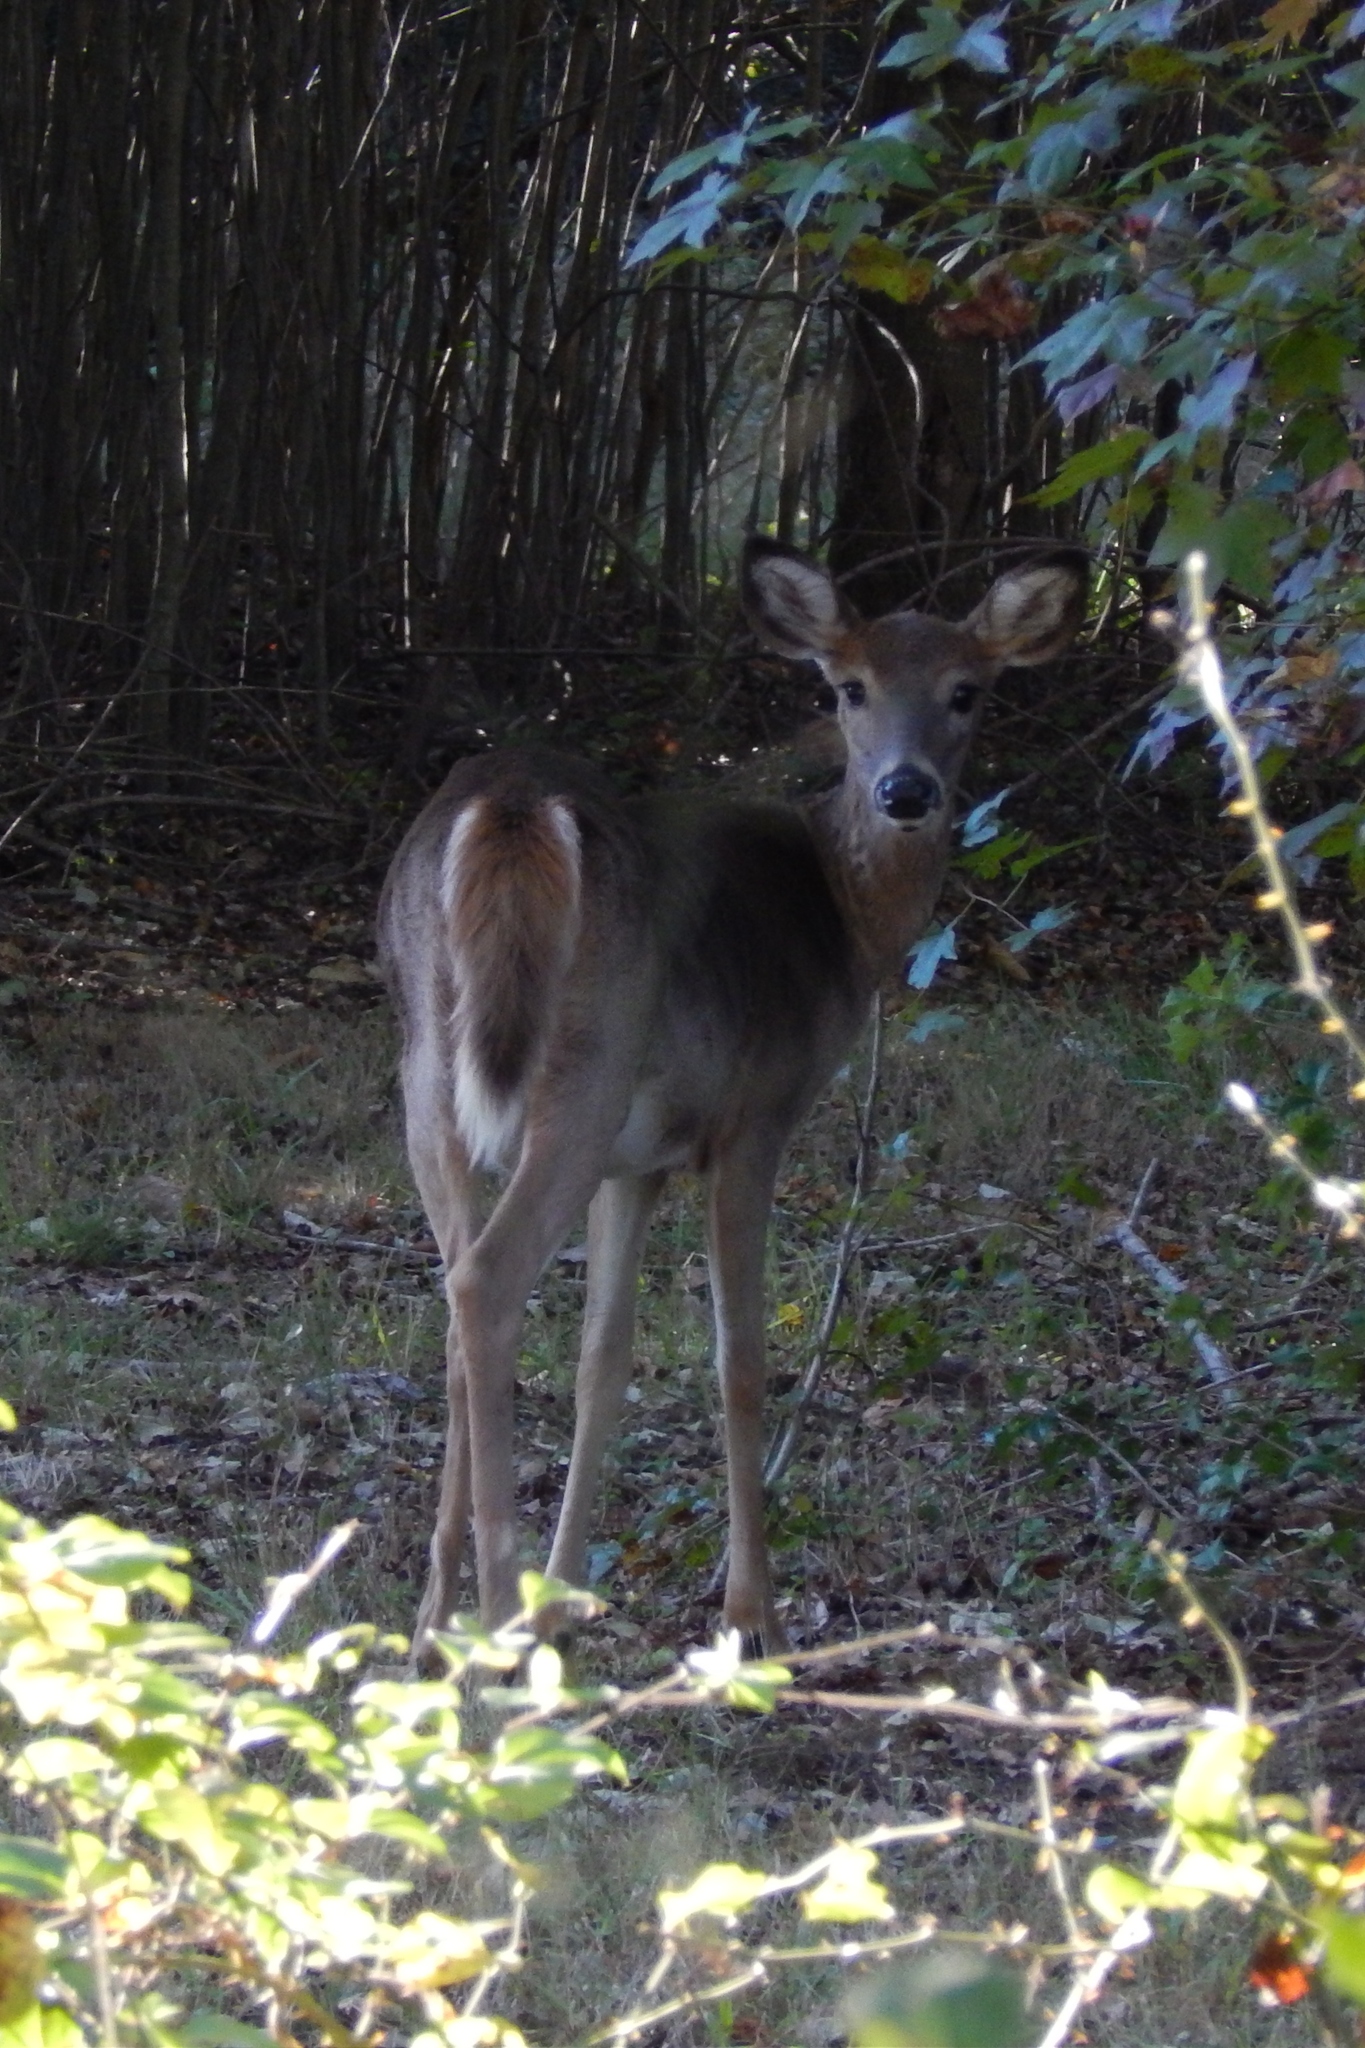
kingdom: Animalia
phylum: Chordata
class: Mammalia
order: Artiodactyla
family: Cervidae
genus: Odocoileus
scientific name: Odocoileus virginianus
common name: White-tailed deer
